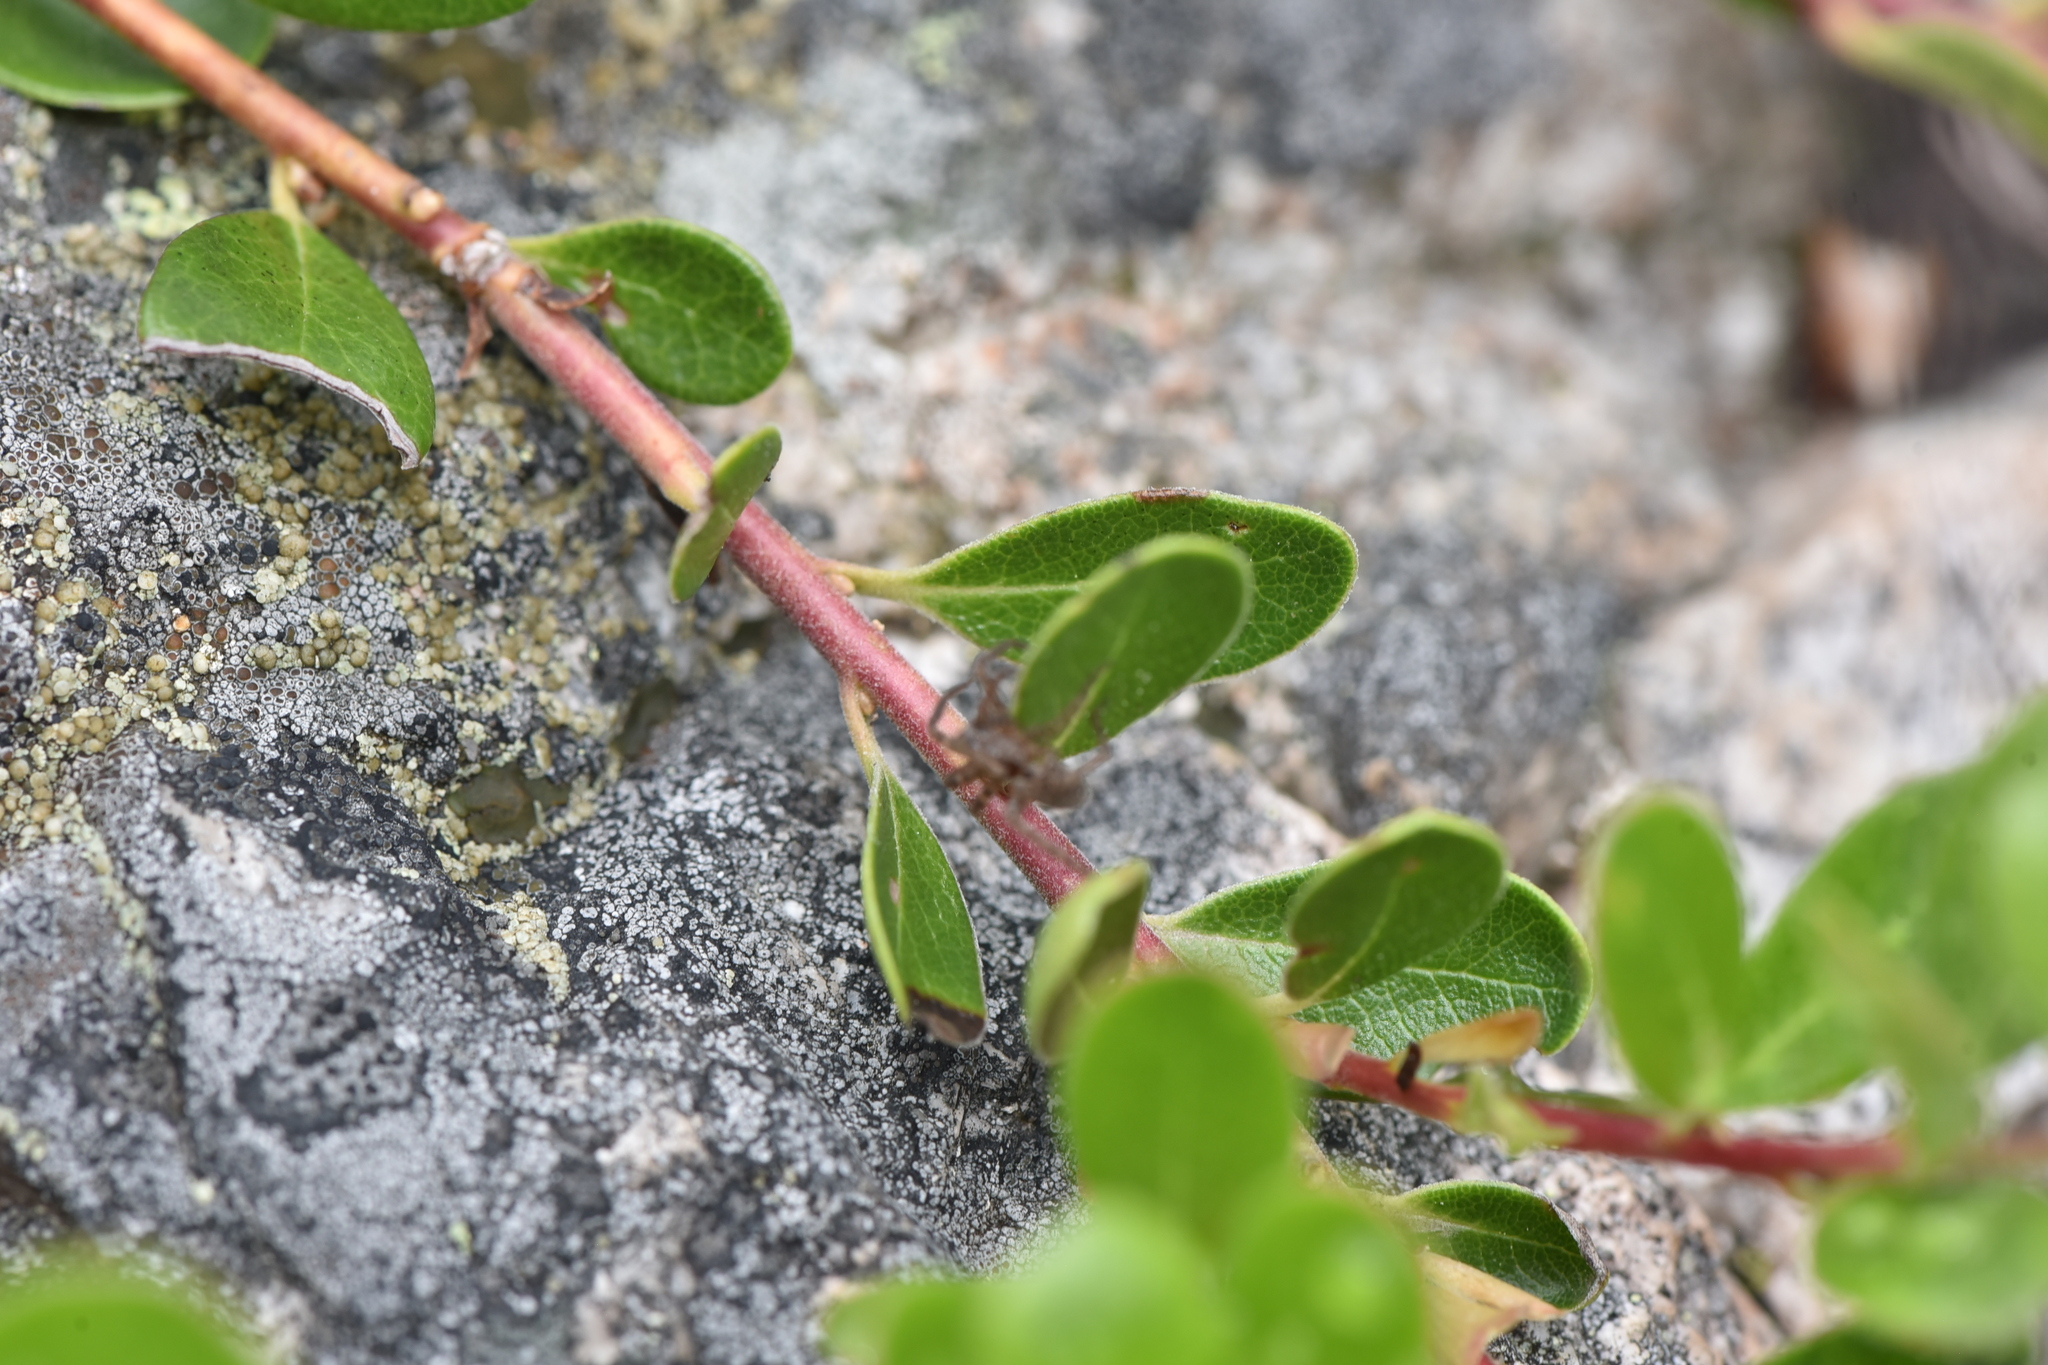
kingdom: Plantae
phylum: Tracheophyta
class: Magnoliopsida
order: Ericales
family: Ericaceae
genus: Arctostaphylos
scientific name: Arctostaphylos uva-ursi
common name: Bearberry
